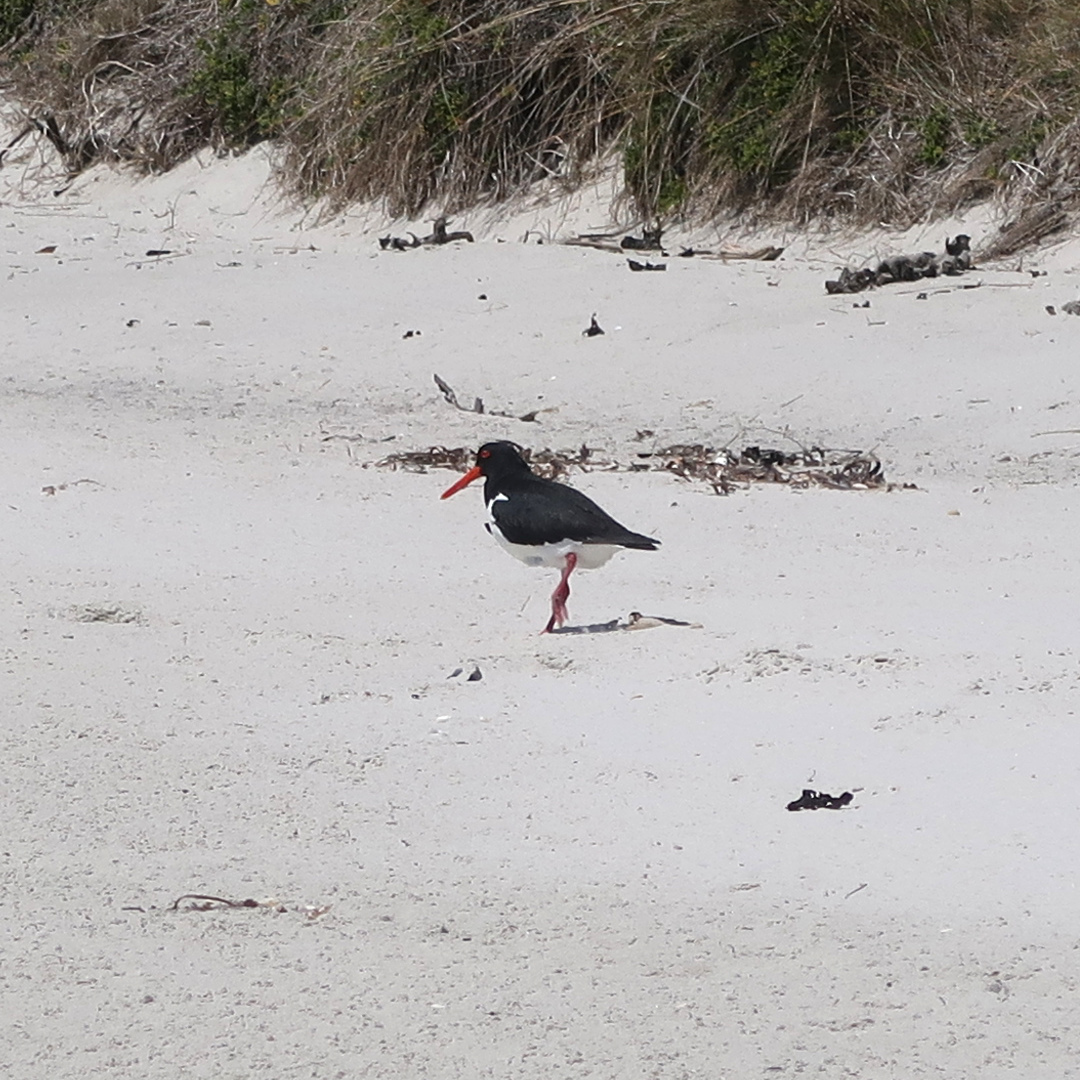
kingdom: Animalia
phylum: Chordata
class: Aves
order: Charadriiformes
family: Haematopodidae
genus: Haematopus
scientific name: Haematopus longirostris
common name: Pied oystercatcher
